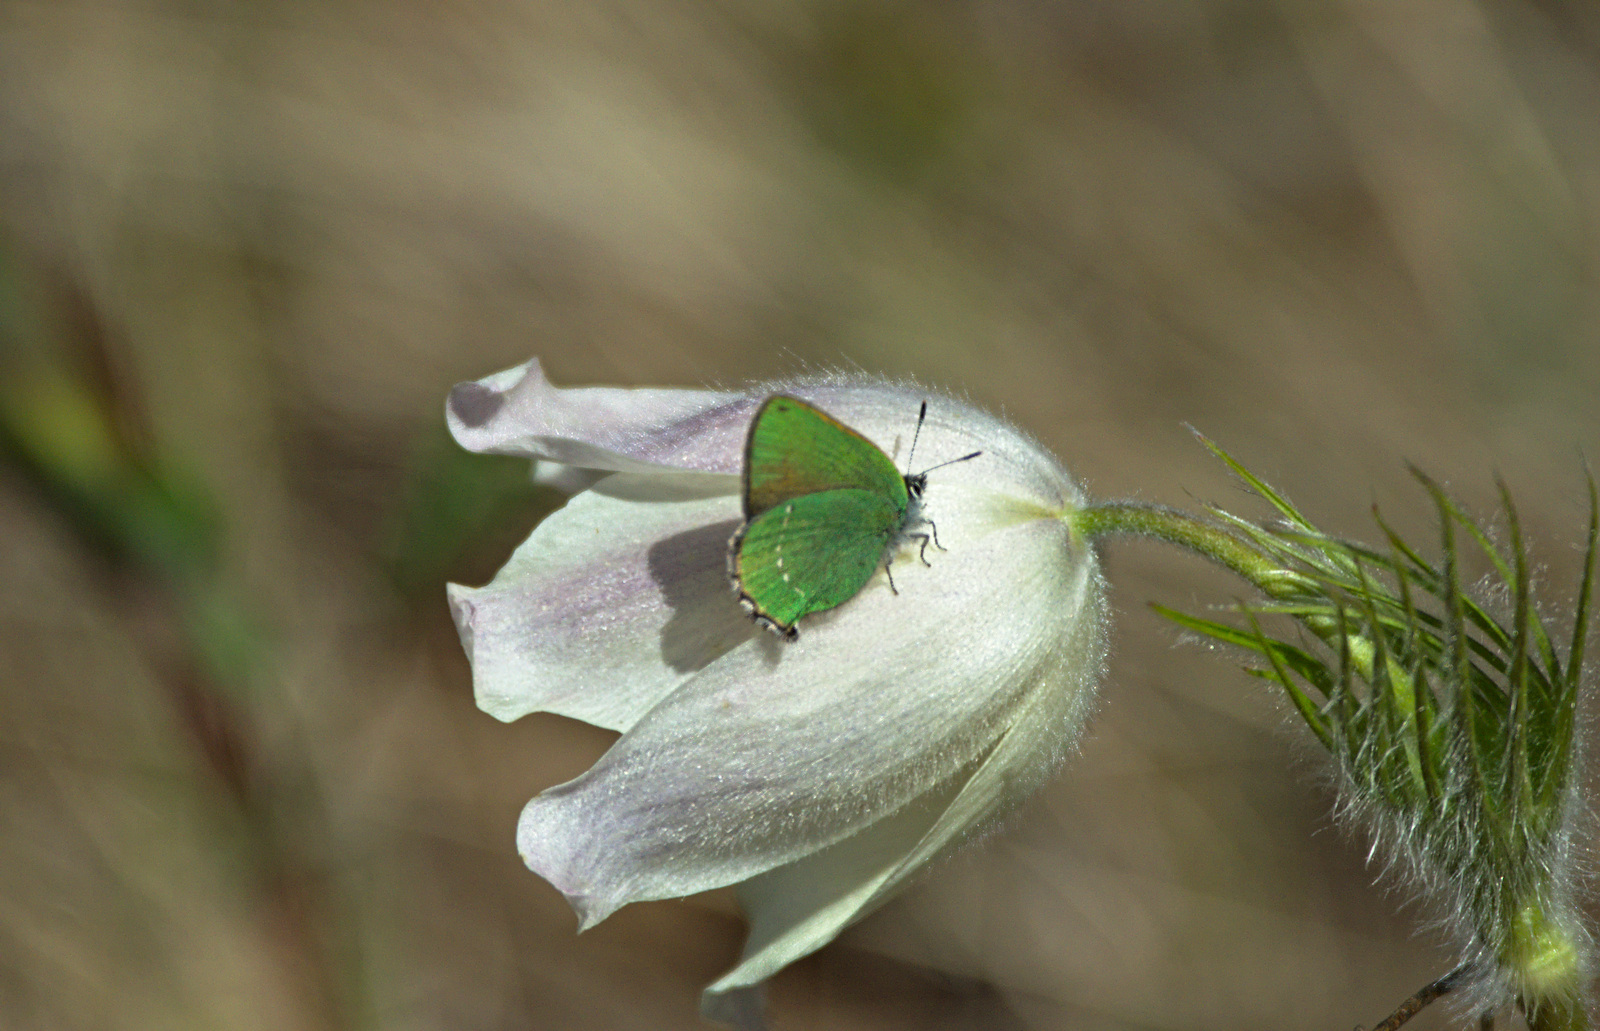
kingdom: Plantae
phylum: Tracheophyta
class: Magnoliopsida
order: Ranunculales
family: Ranunculaceae
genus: Pulsatilla
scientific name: Pulsatilla patens
